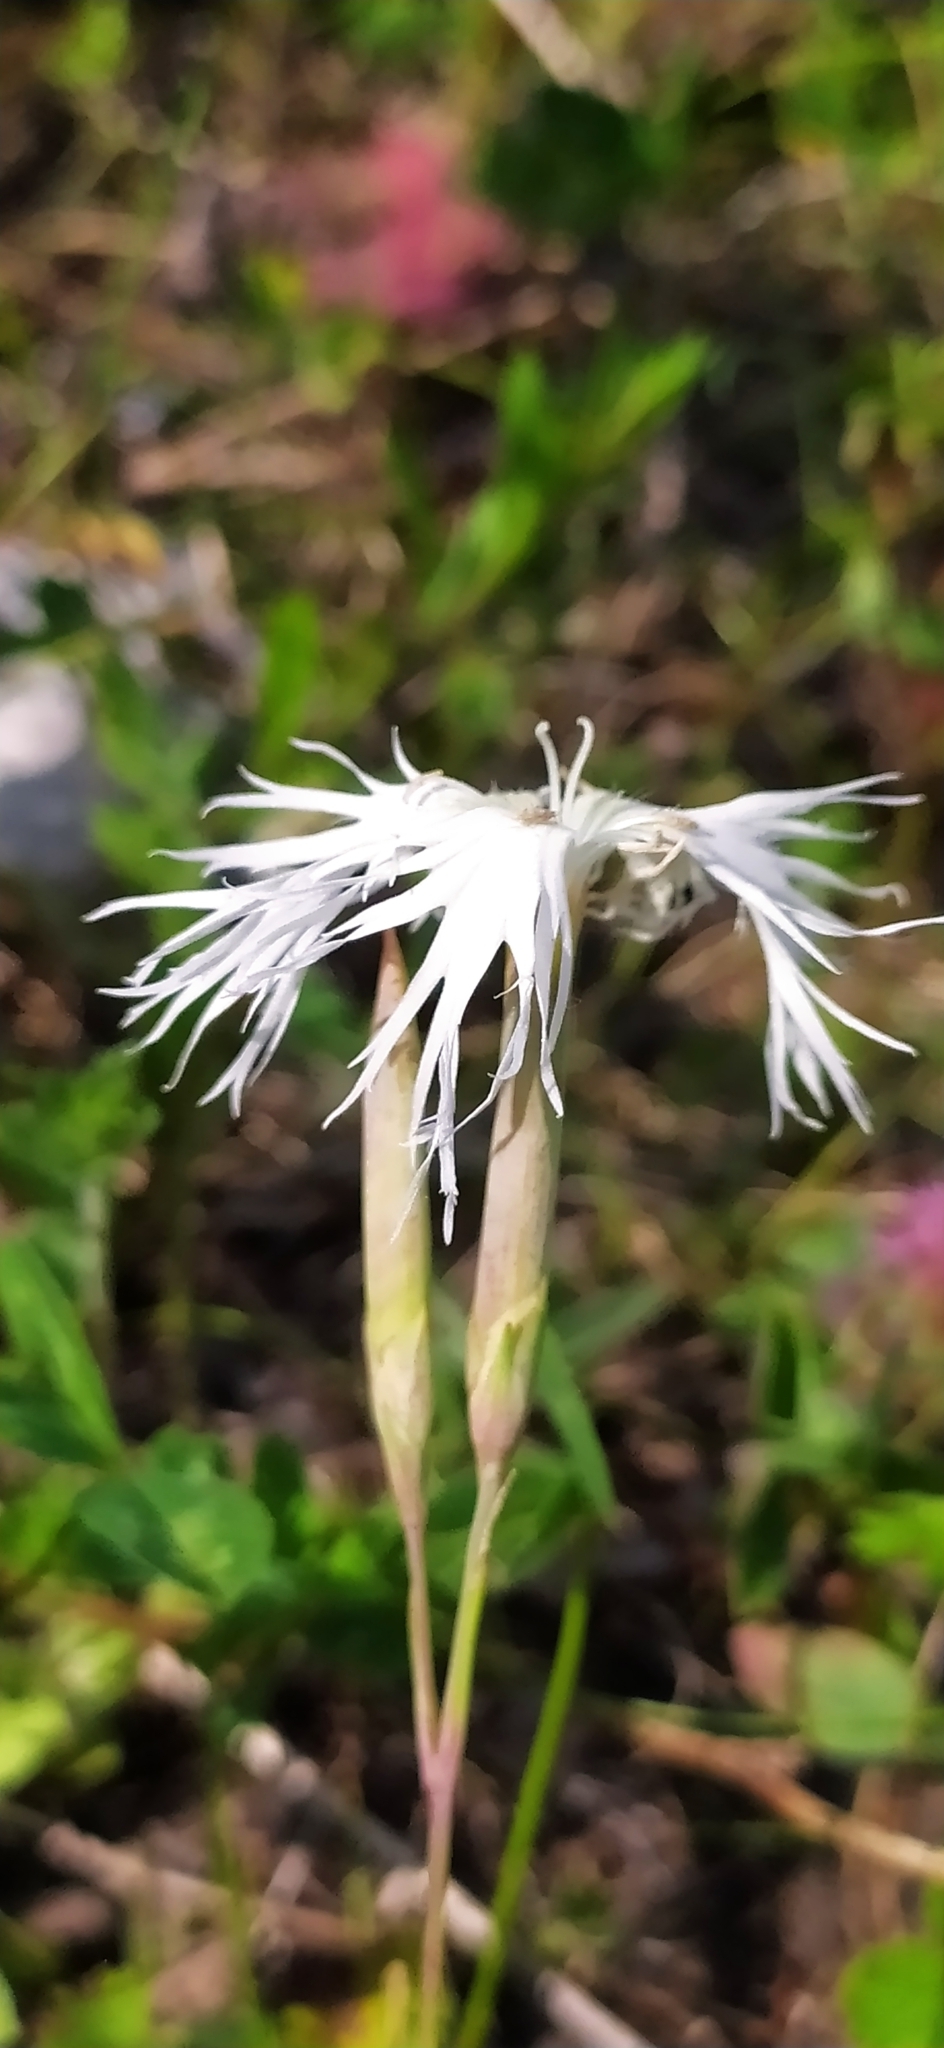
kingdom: Plantae
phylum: Tracheophyta
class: Magnoliopsida
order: Caryophyllales
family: Caryophyllaceae
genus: Dianthus
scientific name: Dianthus acicularis
